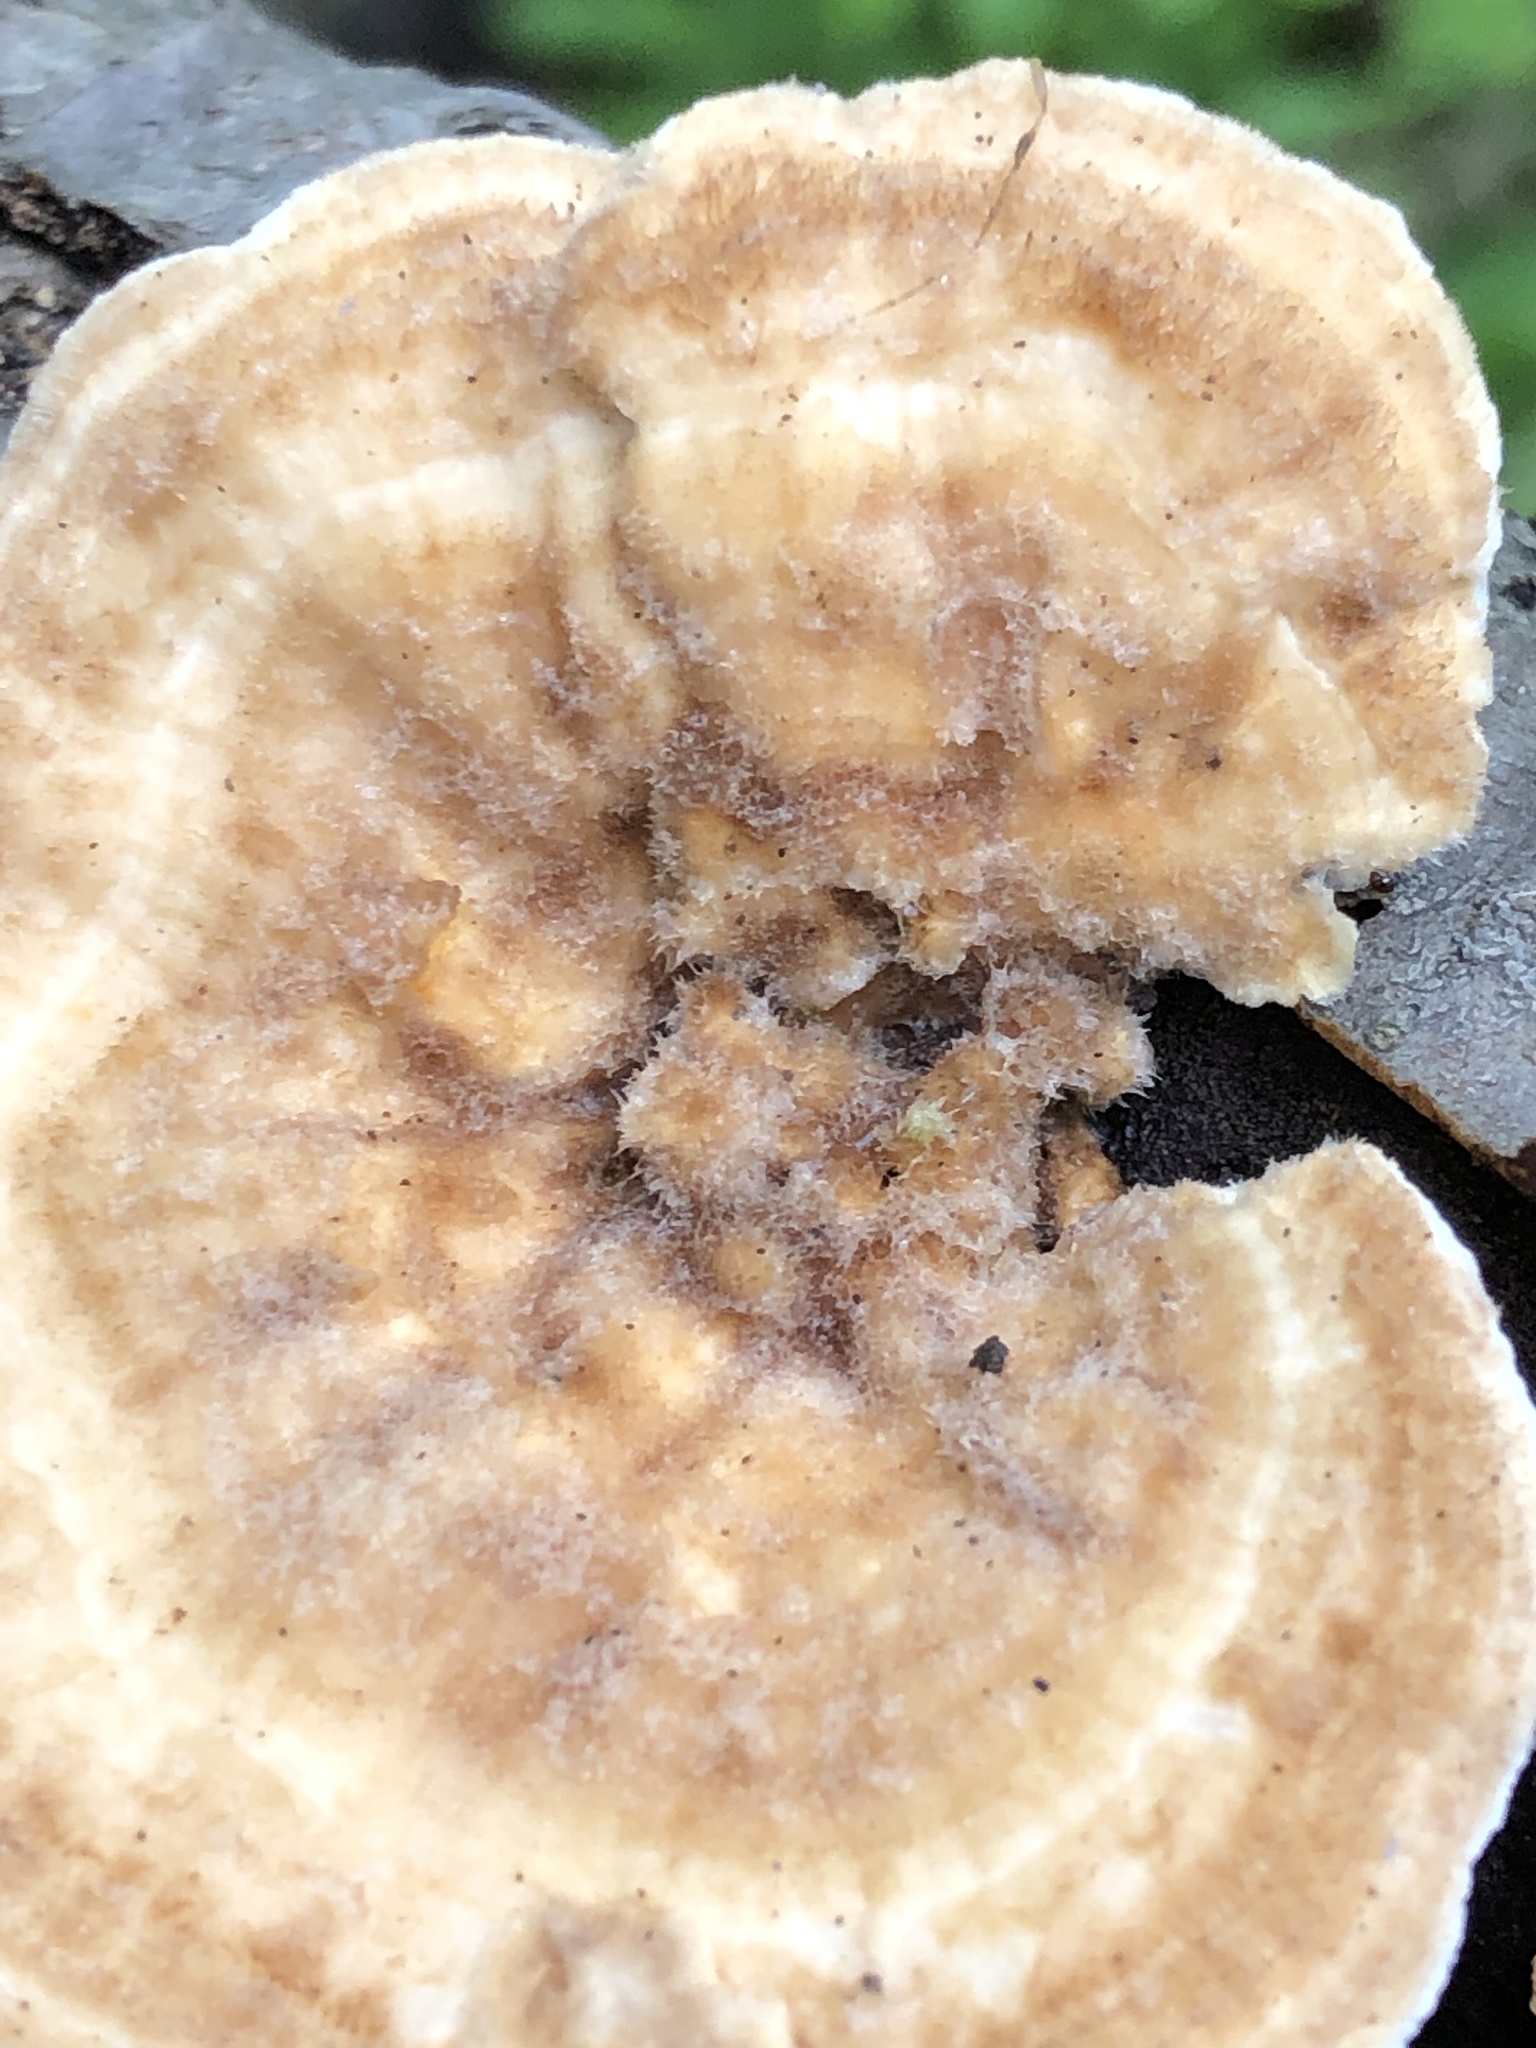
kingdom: Fungi
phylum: Basidiomycota
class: Agaricomycetes
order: Polyporales
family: Polyporaceae
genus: Lenzites
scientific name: Lenzites betulinus
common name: Birch mazegill
